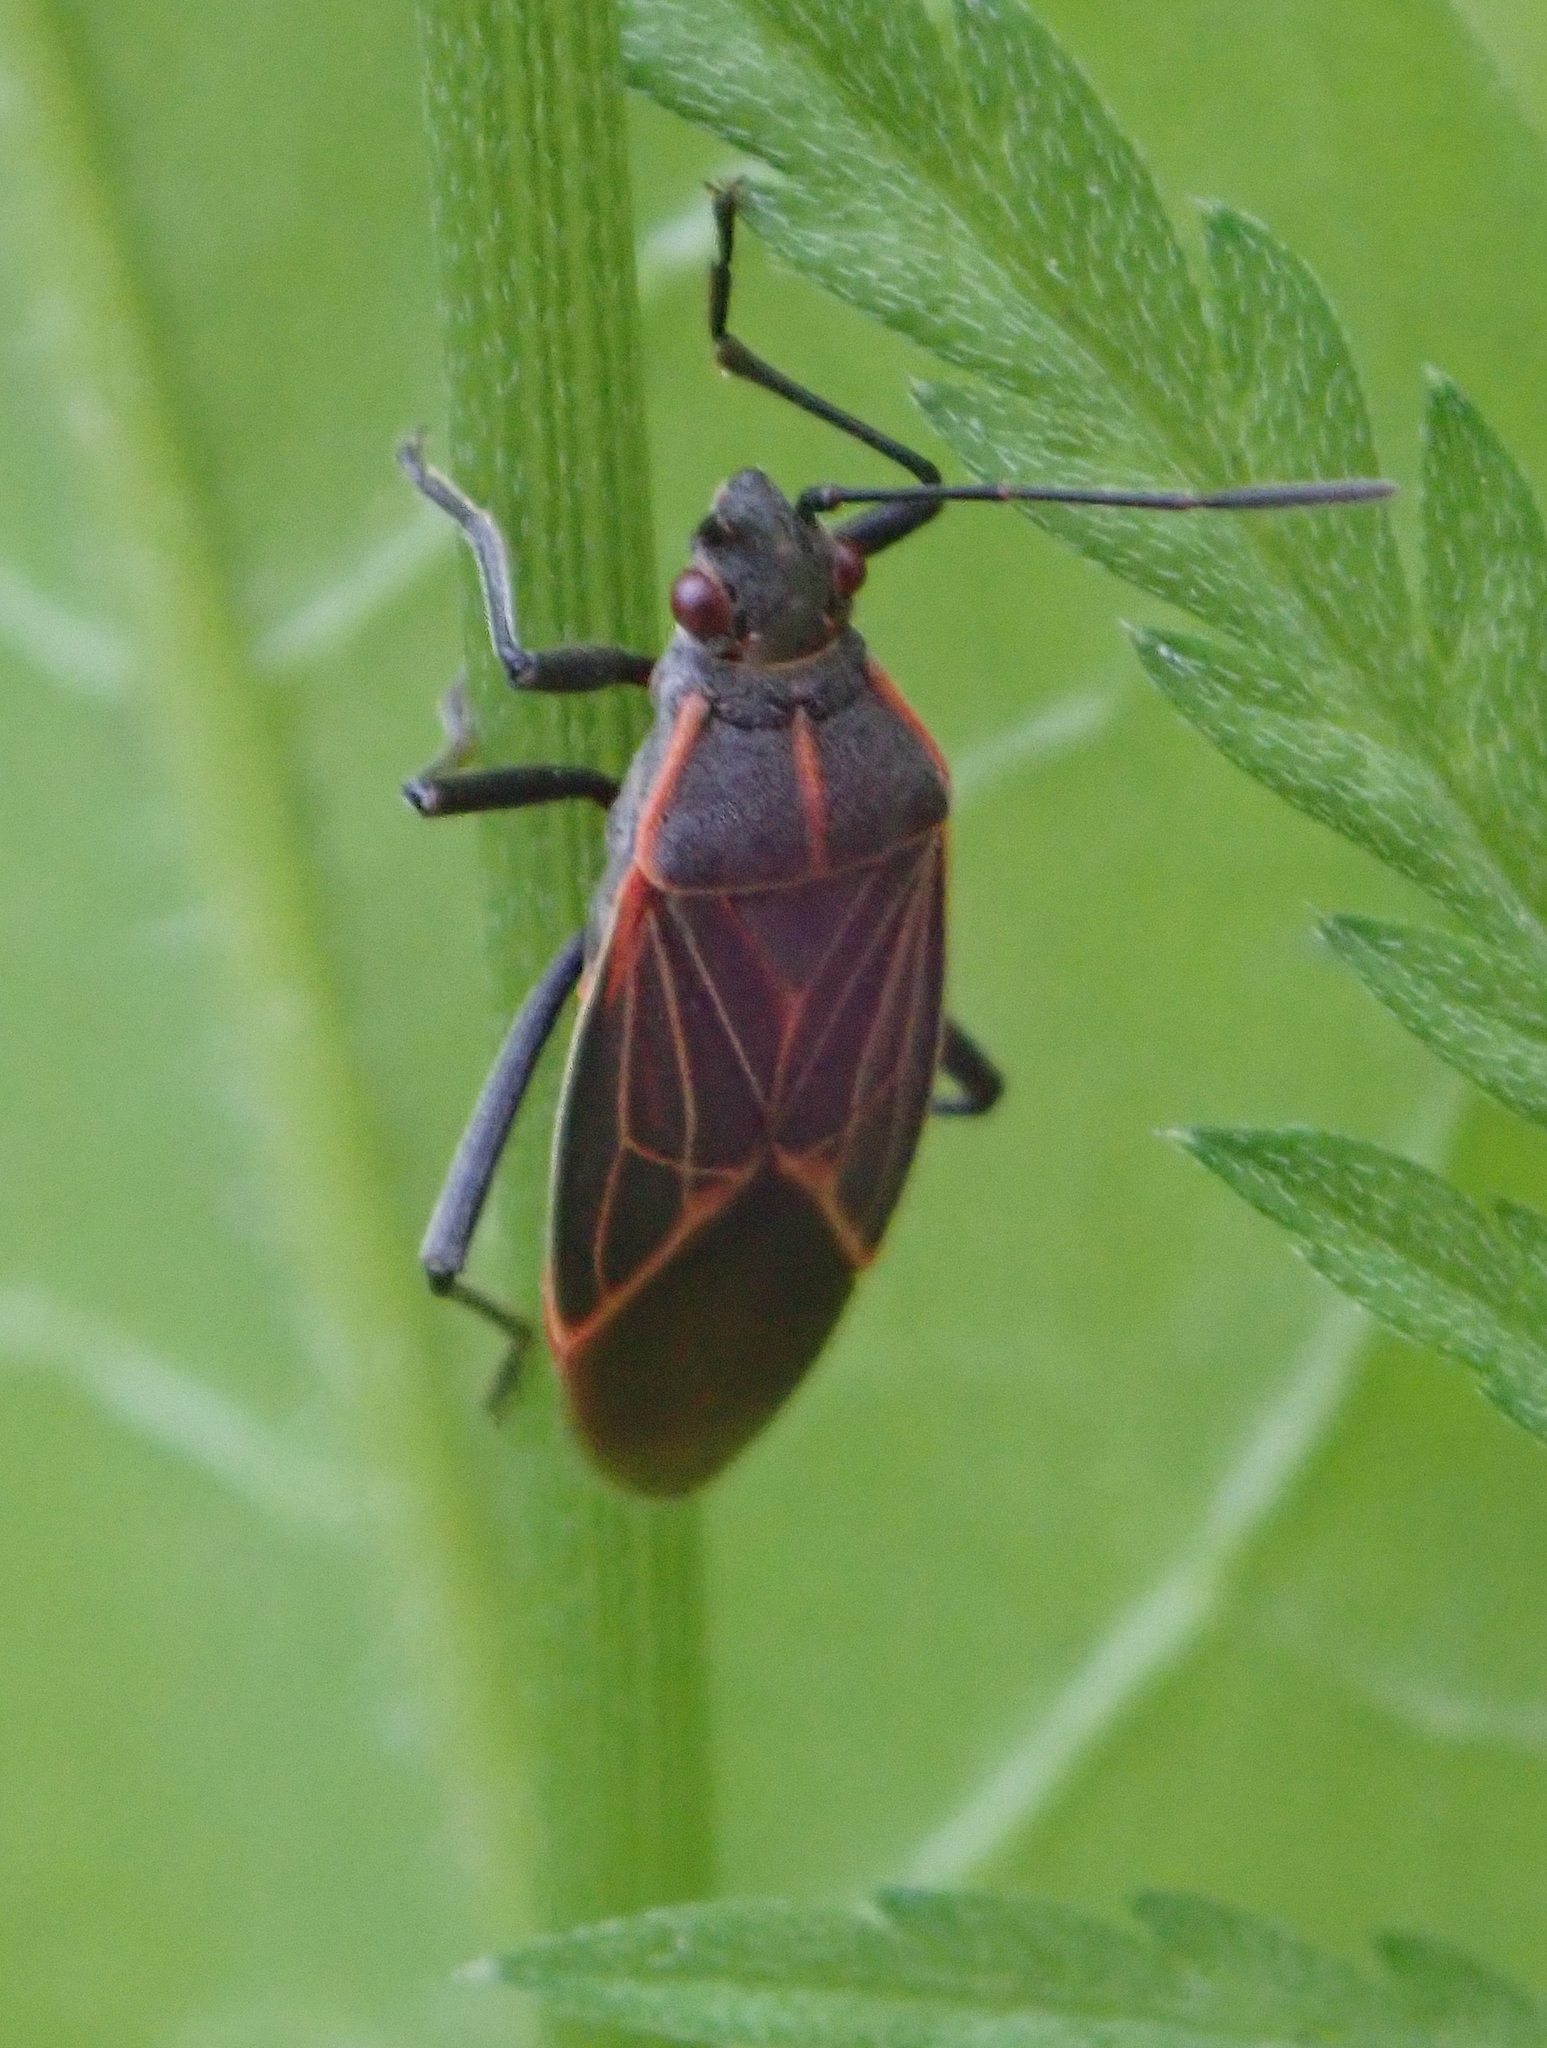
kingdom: Animalia
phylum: Arthropoda
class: Insecta
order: Hemiptera
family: Rhopalidae
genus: Boisea
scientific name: Boisea rubrolineata
